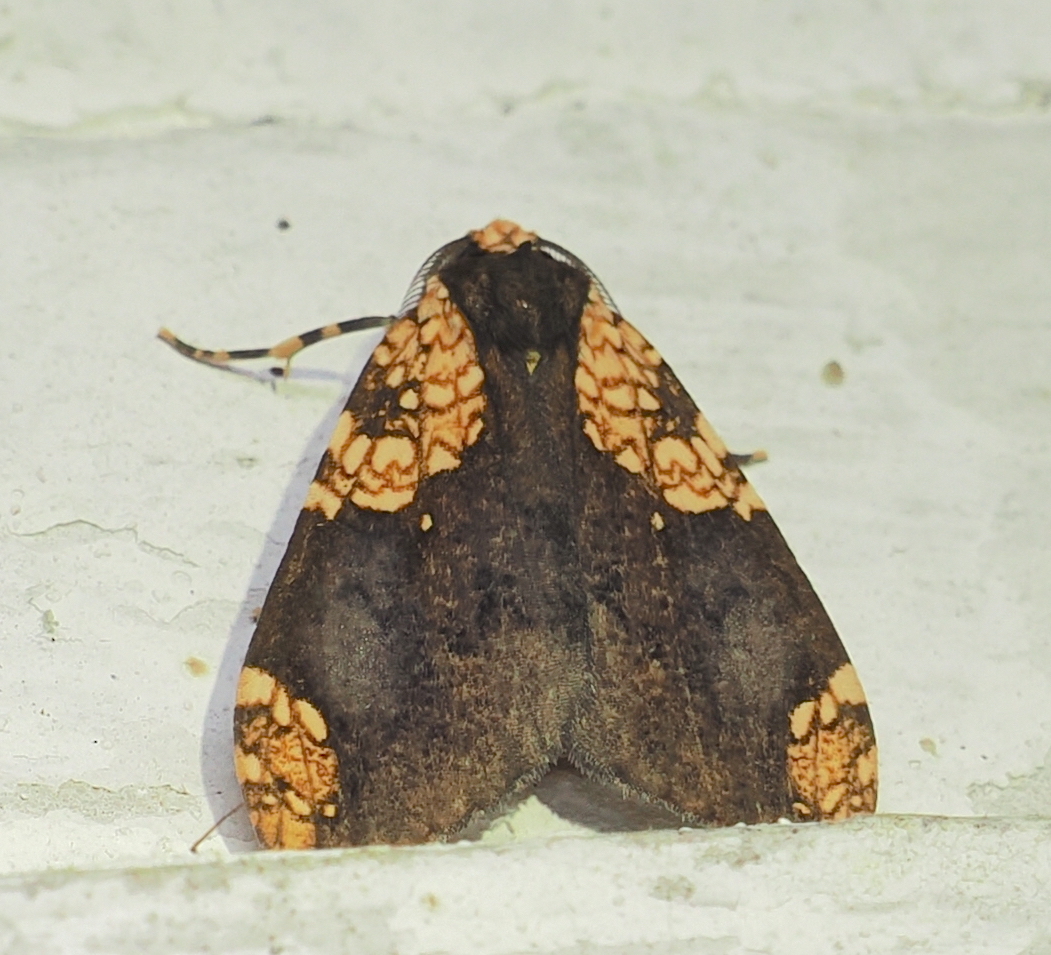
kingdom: Animalia
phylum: Arthropoda
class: Insecta
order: Lepidoptera
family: Erebidae
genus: Aemilia
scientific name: Aemilia rubriplaga
